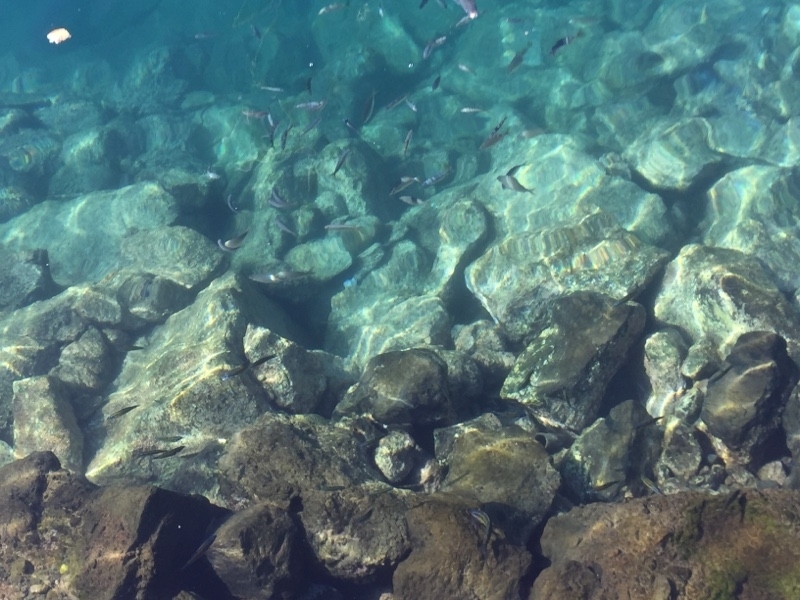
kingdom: Animalia
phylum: Chordata
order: Perciformes
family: Labridae
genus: Thalassoma
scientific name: Thalassoma pavo
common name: Ornate wrasse
